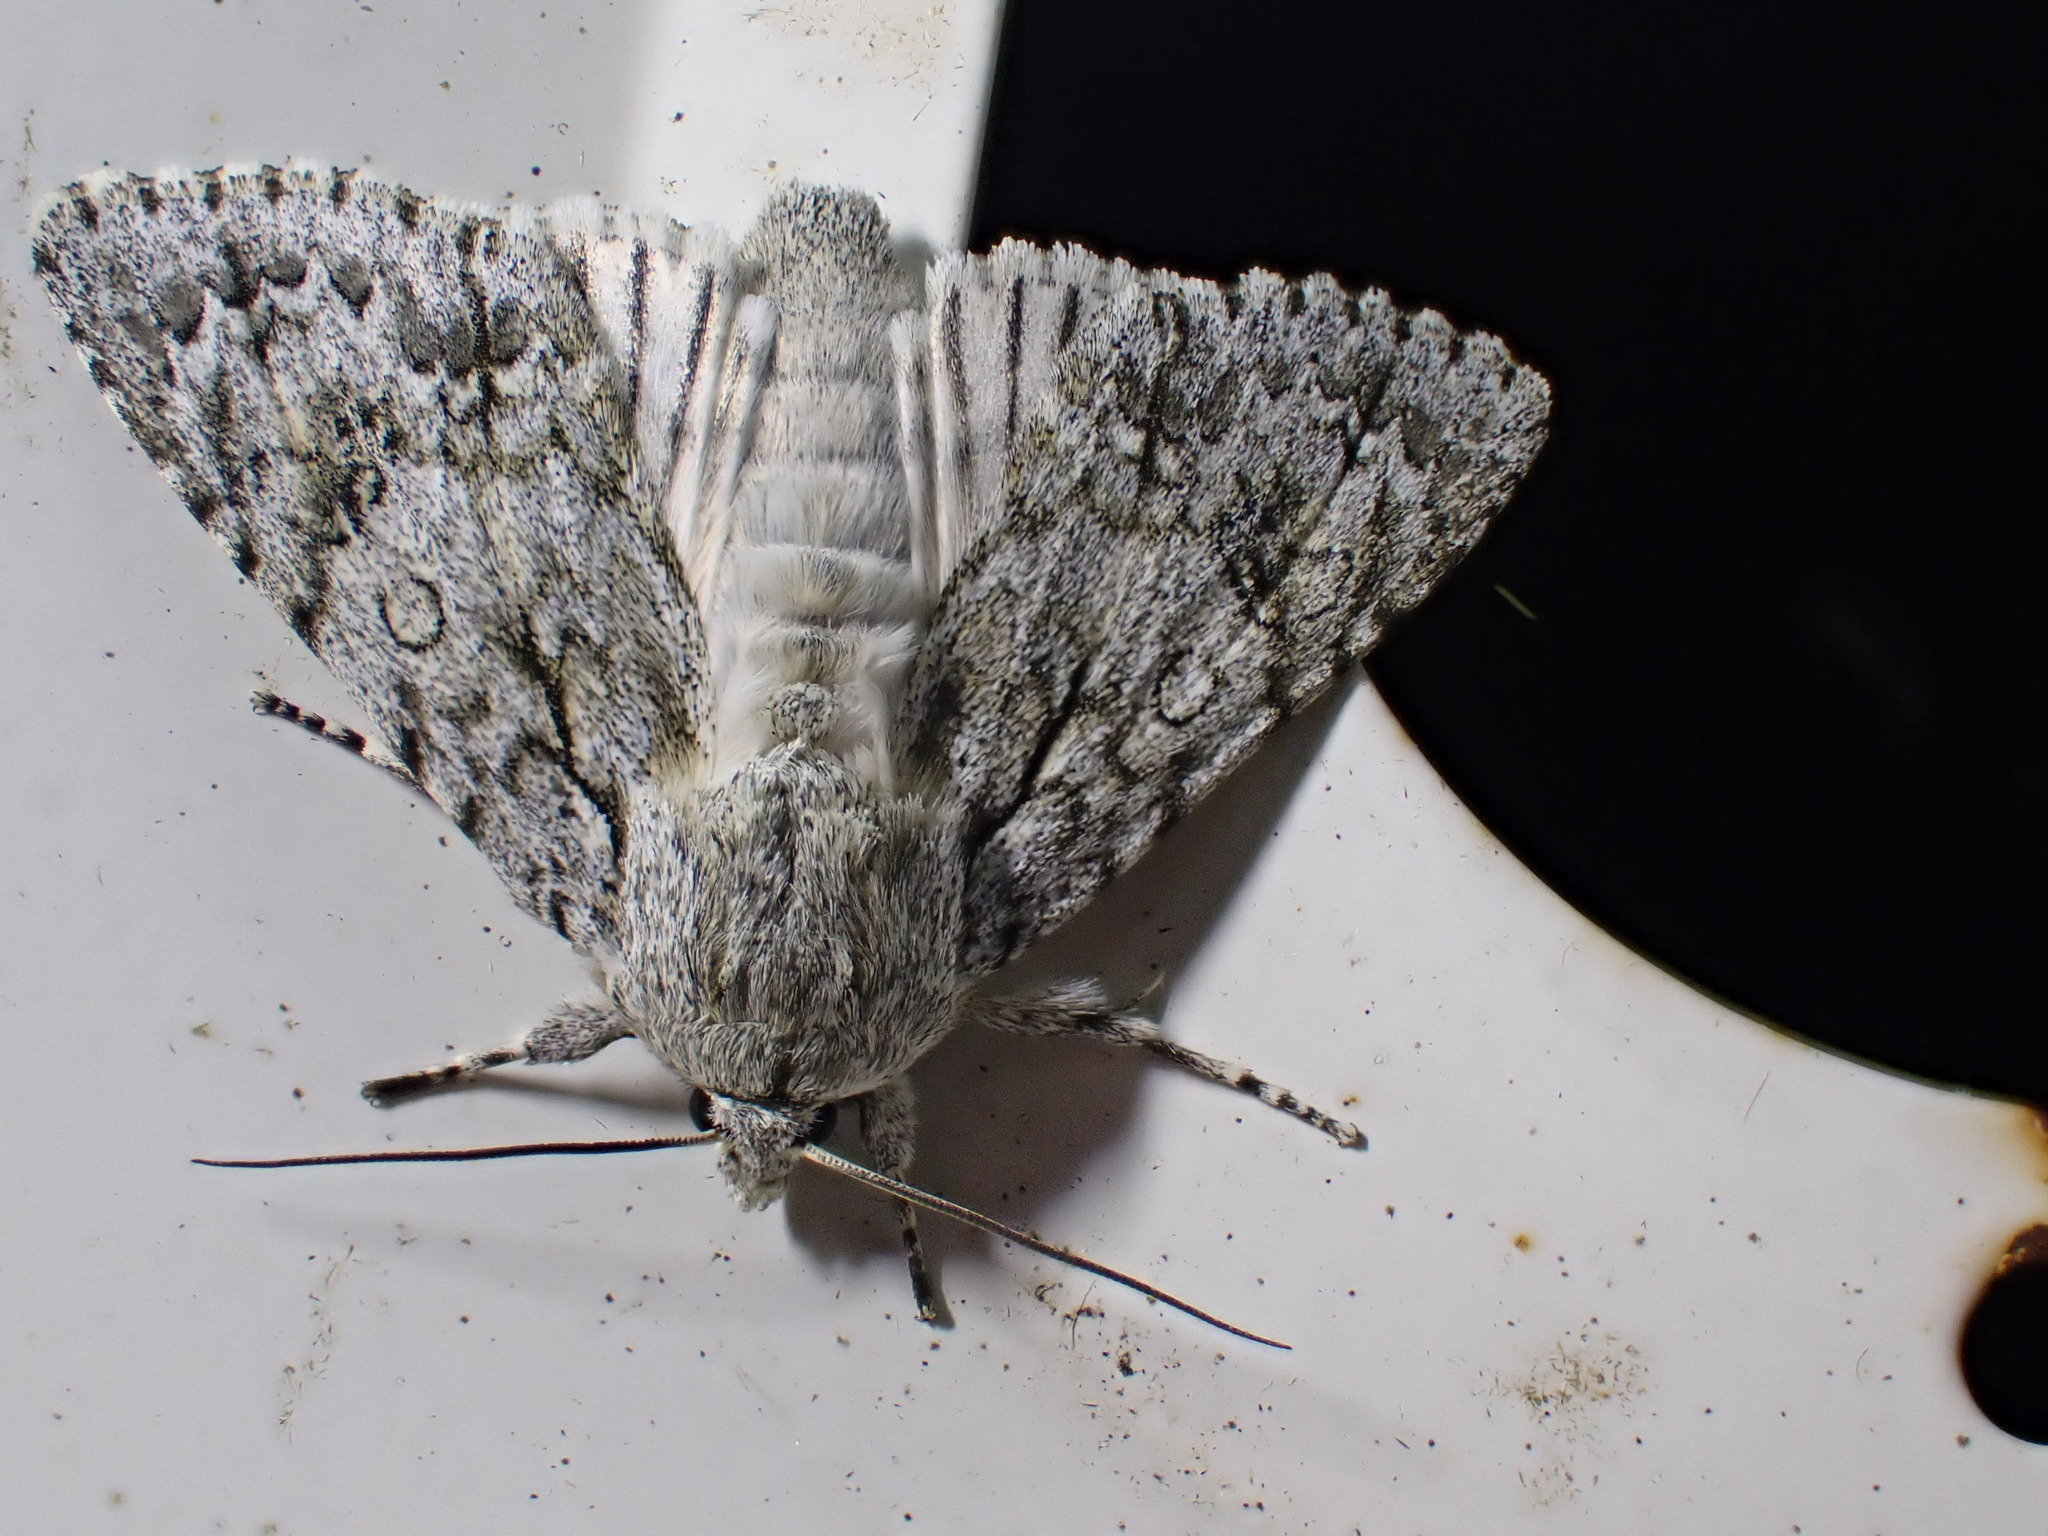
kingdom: Animalia
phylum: Arthropoda
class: Insecta
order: Lepidoptera
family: Noctuidae
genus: Acronicta
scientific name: Acronicta aceris
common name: Sycamore
